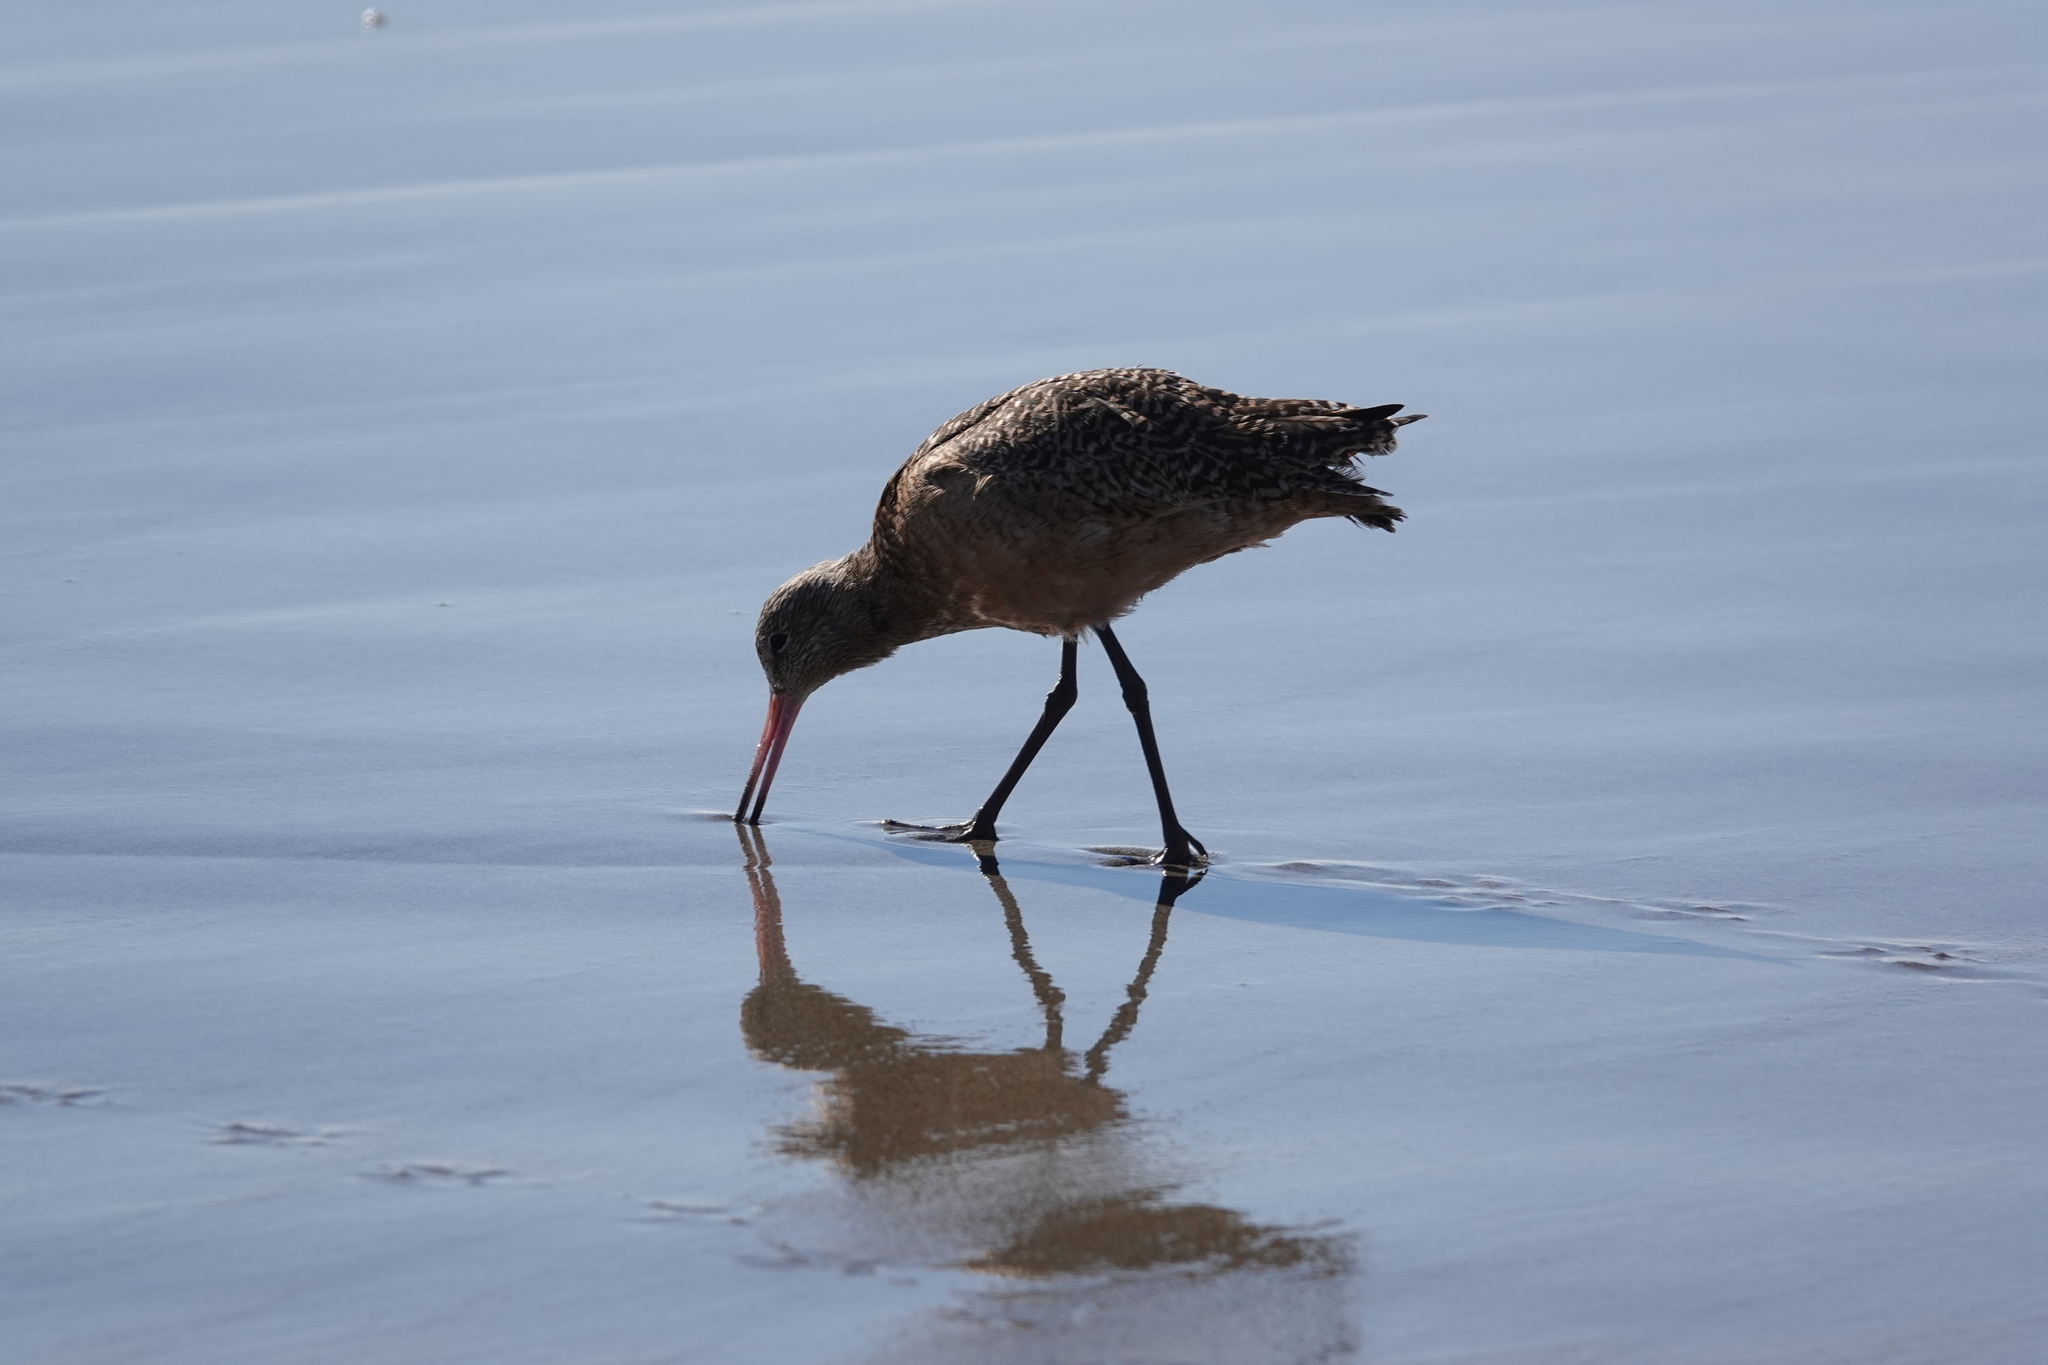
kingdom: Animalia
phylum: Chordata
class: Aves
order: Charadriiformes
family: Scolopacidae
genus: Limosa
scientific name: Limosa fedoa
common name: Marbled godwit
